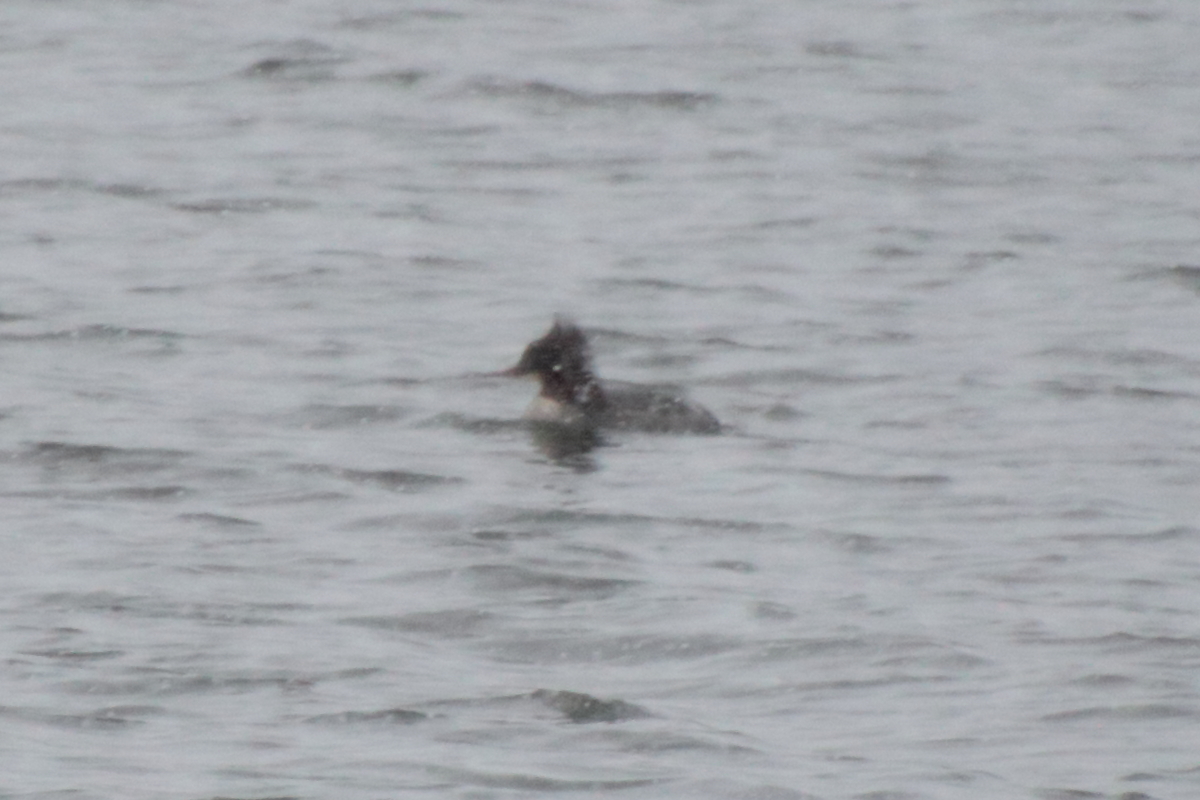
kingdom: Animalia
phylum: Chordata
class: Aves
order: Anseriformes
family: Anatidae
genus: Mergus
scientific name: Mergus merganser
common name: Common merganser
